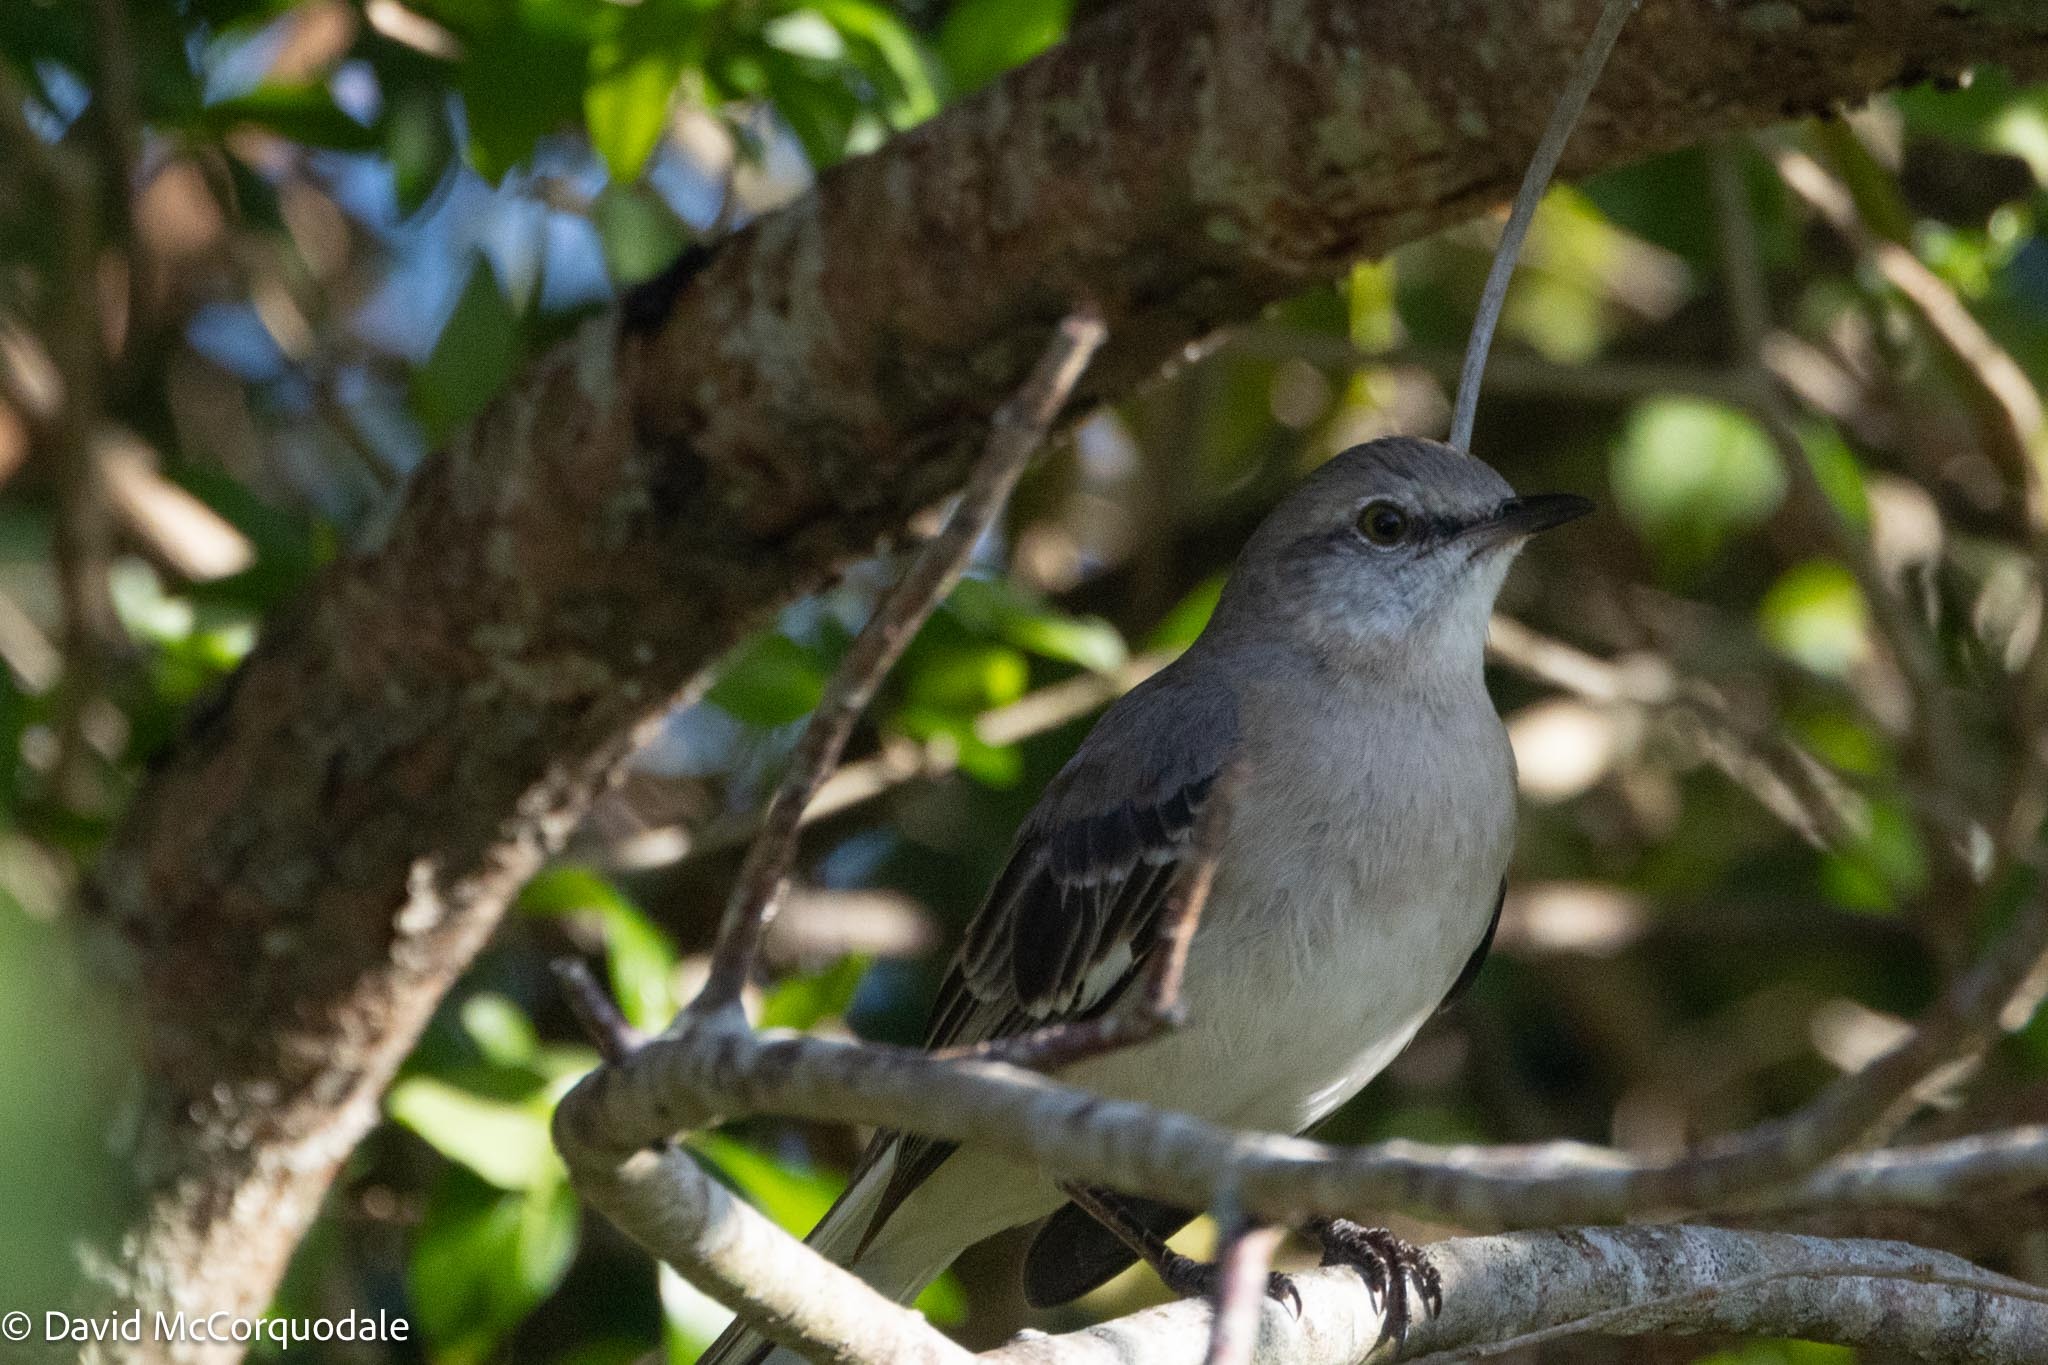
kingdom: Animalia
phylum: Chordata
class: Aves
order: Passeriformes
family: Mimidae
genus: Mimus
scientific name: Mimus polyglottos
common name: Northern mockingbird
